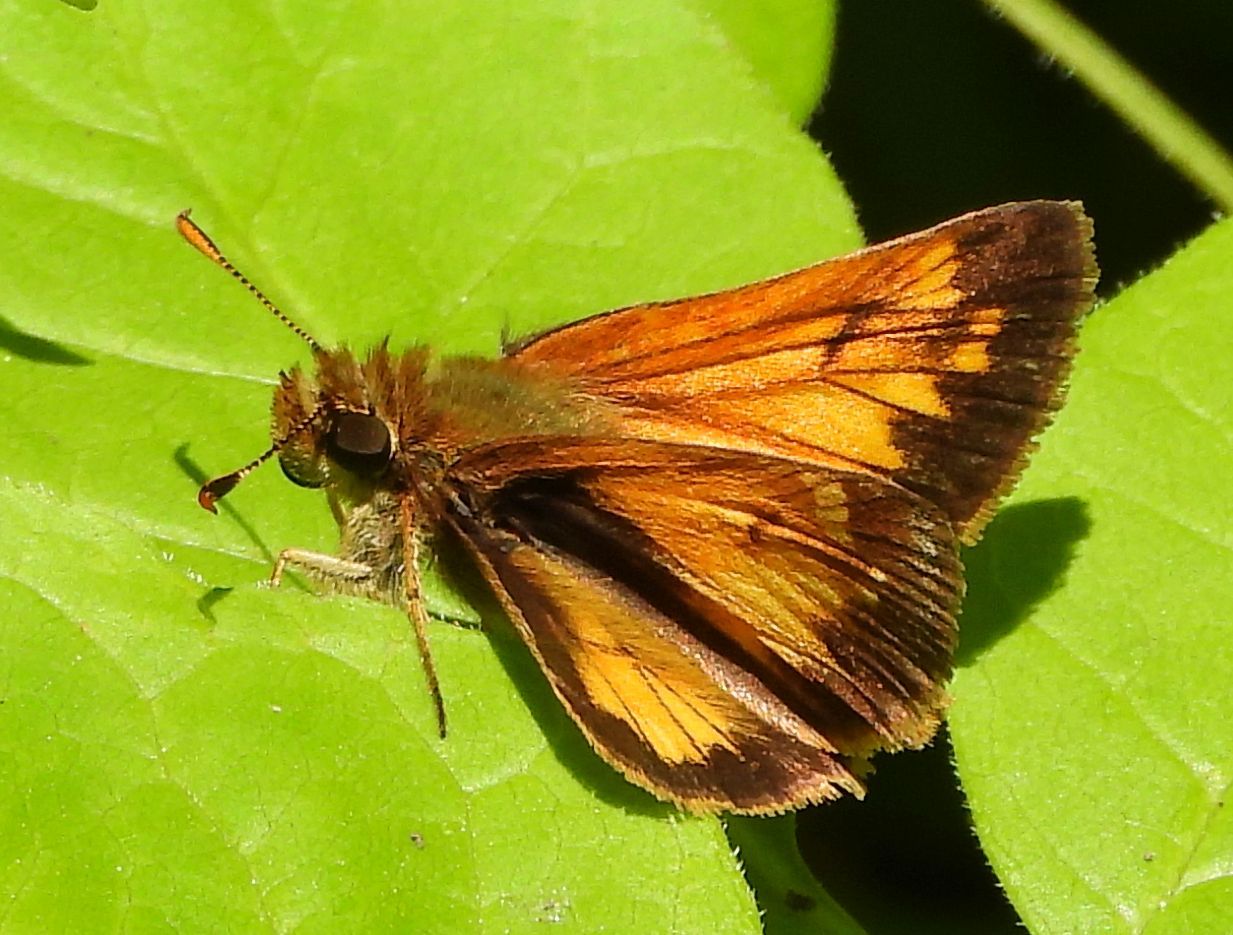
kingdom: Animalia
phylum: Arthropoda
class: Insecta
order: Lepidoptera
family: Hesperiidae
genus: Lon
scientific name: Lon hobomok
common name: Hobomok skipper
